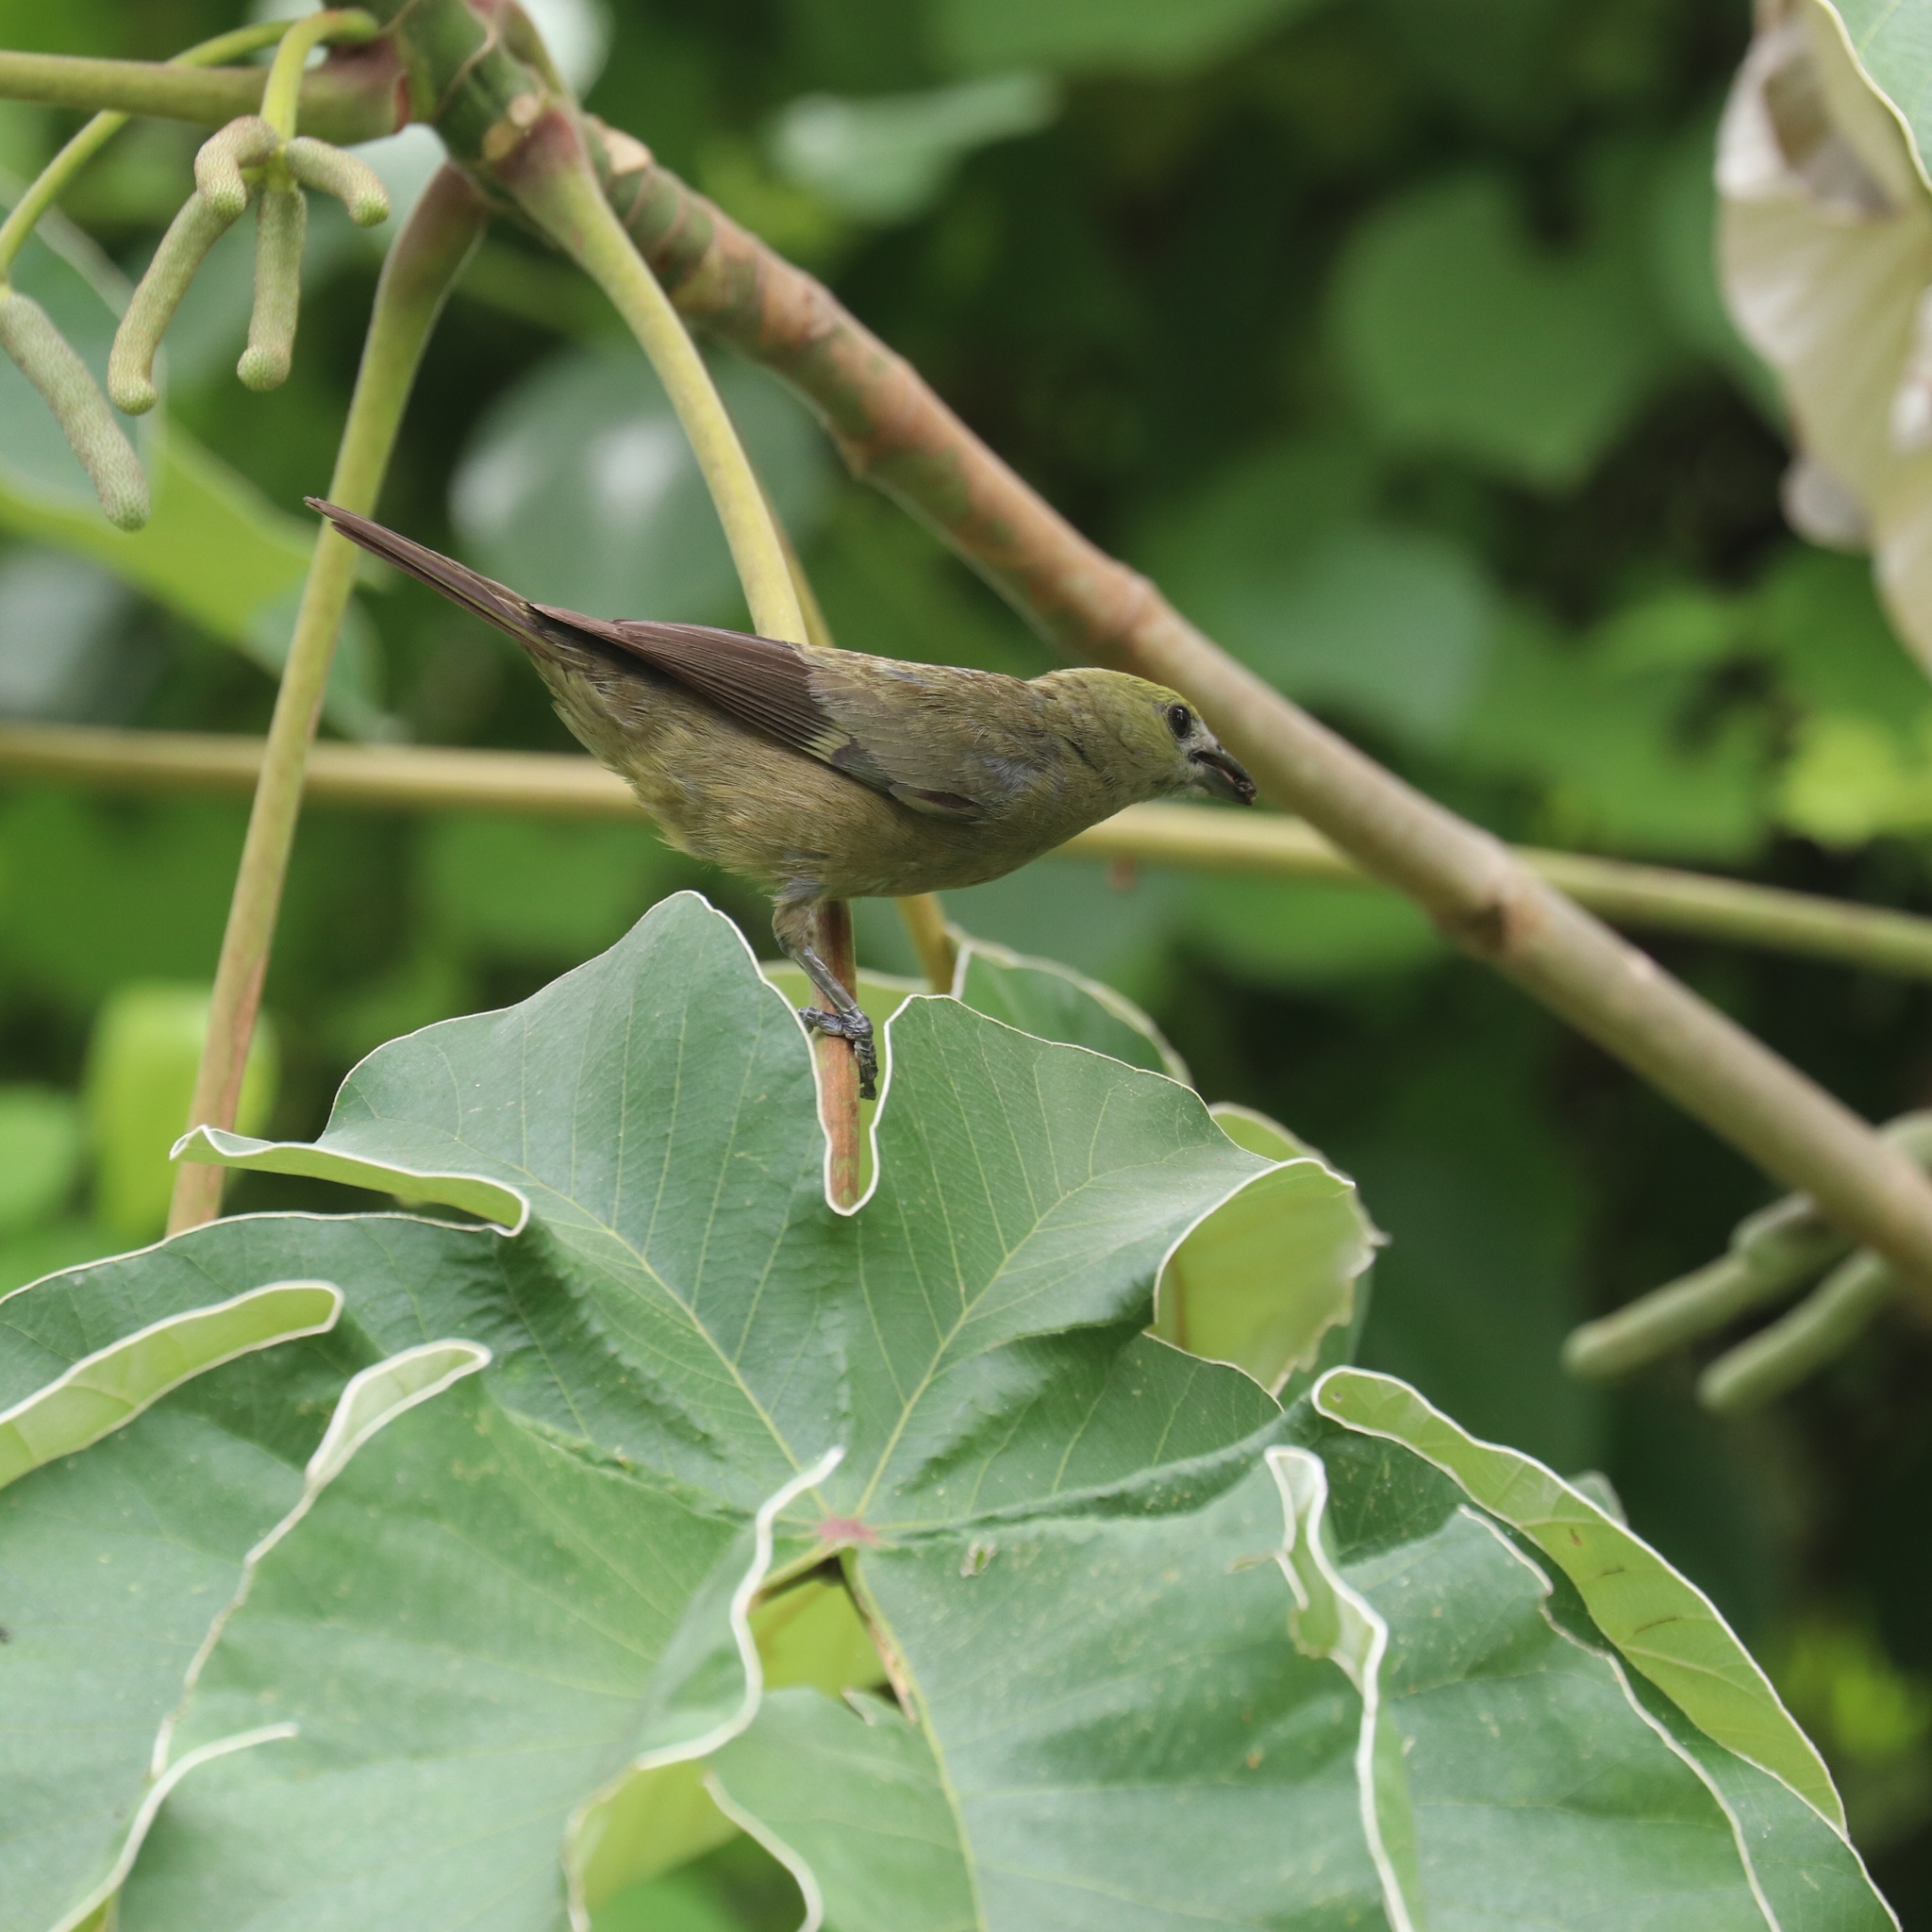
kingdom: Animalia
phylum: Chordata
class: Aves
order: Passeriformes
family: Thraupidae
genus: Thraupis
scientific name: Thraupis palmarum
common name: Palm tanager
